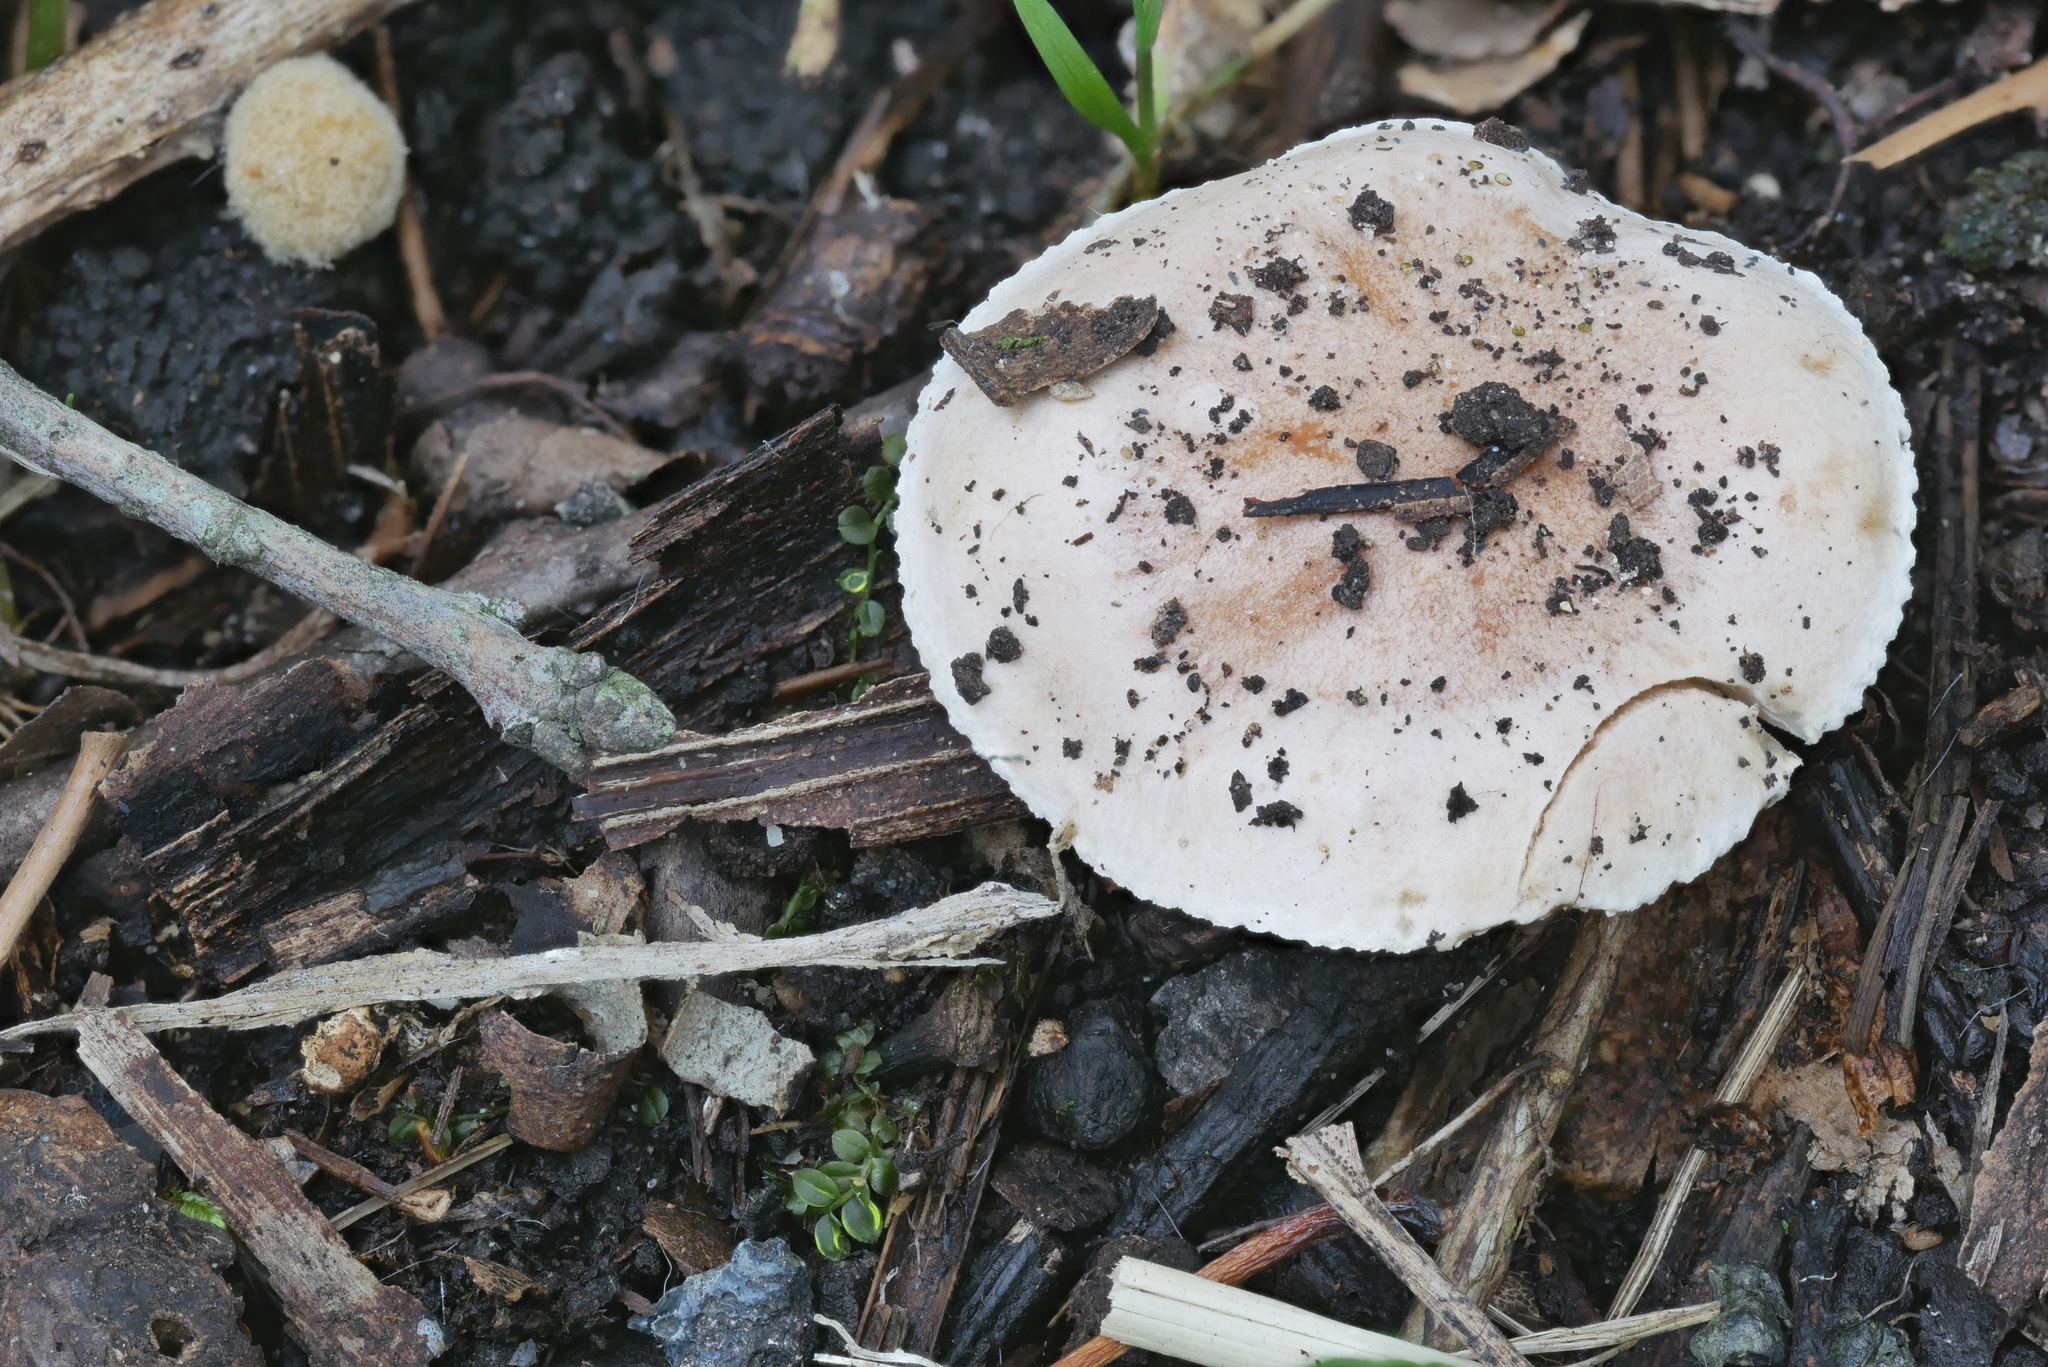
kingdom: Fungi
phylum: Basidiomycota
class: Agaricomycetes
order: Agaricales
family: Hymenogastraceae
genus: Hebeloma
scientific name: Hebeloma sordidum
